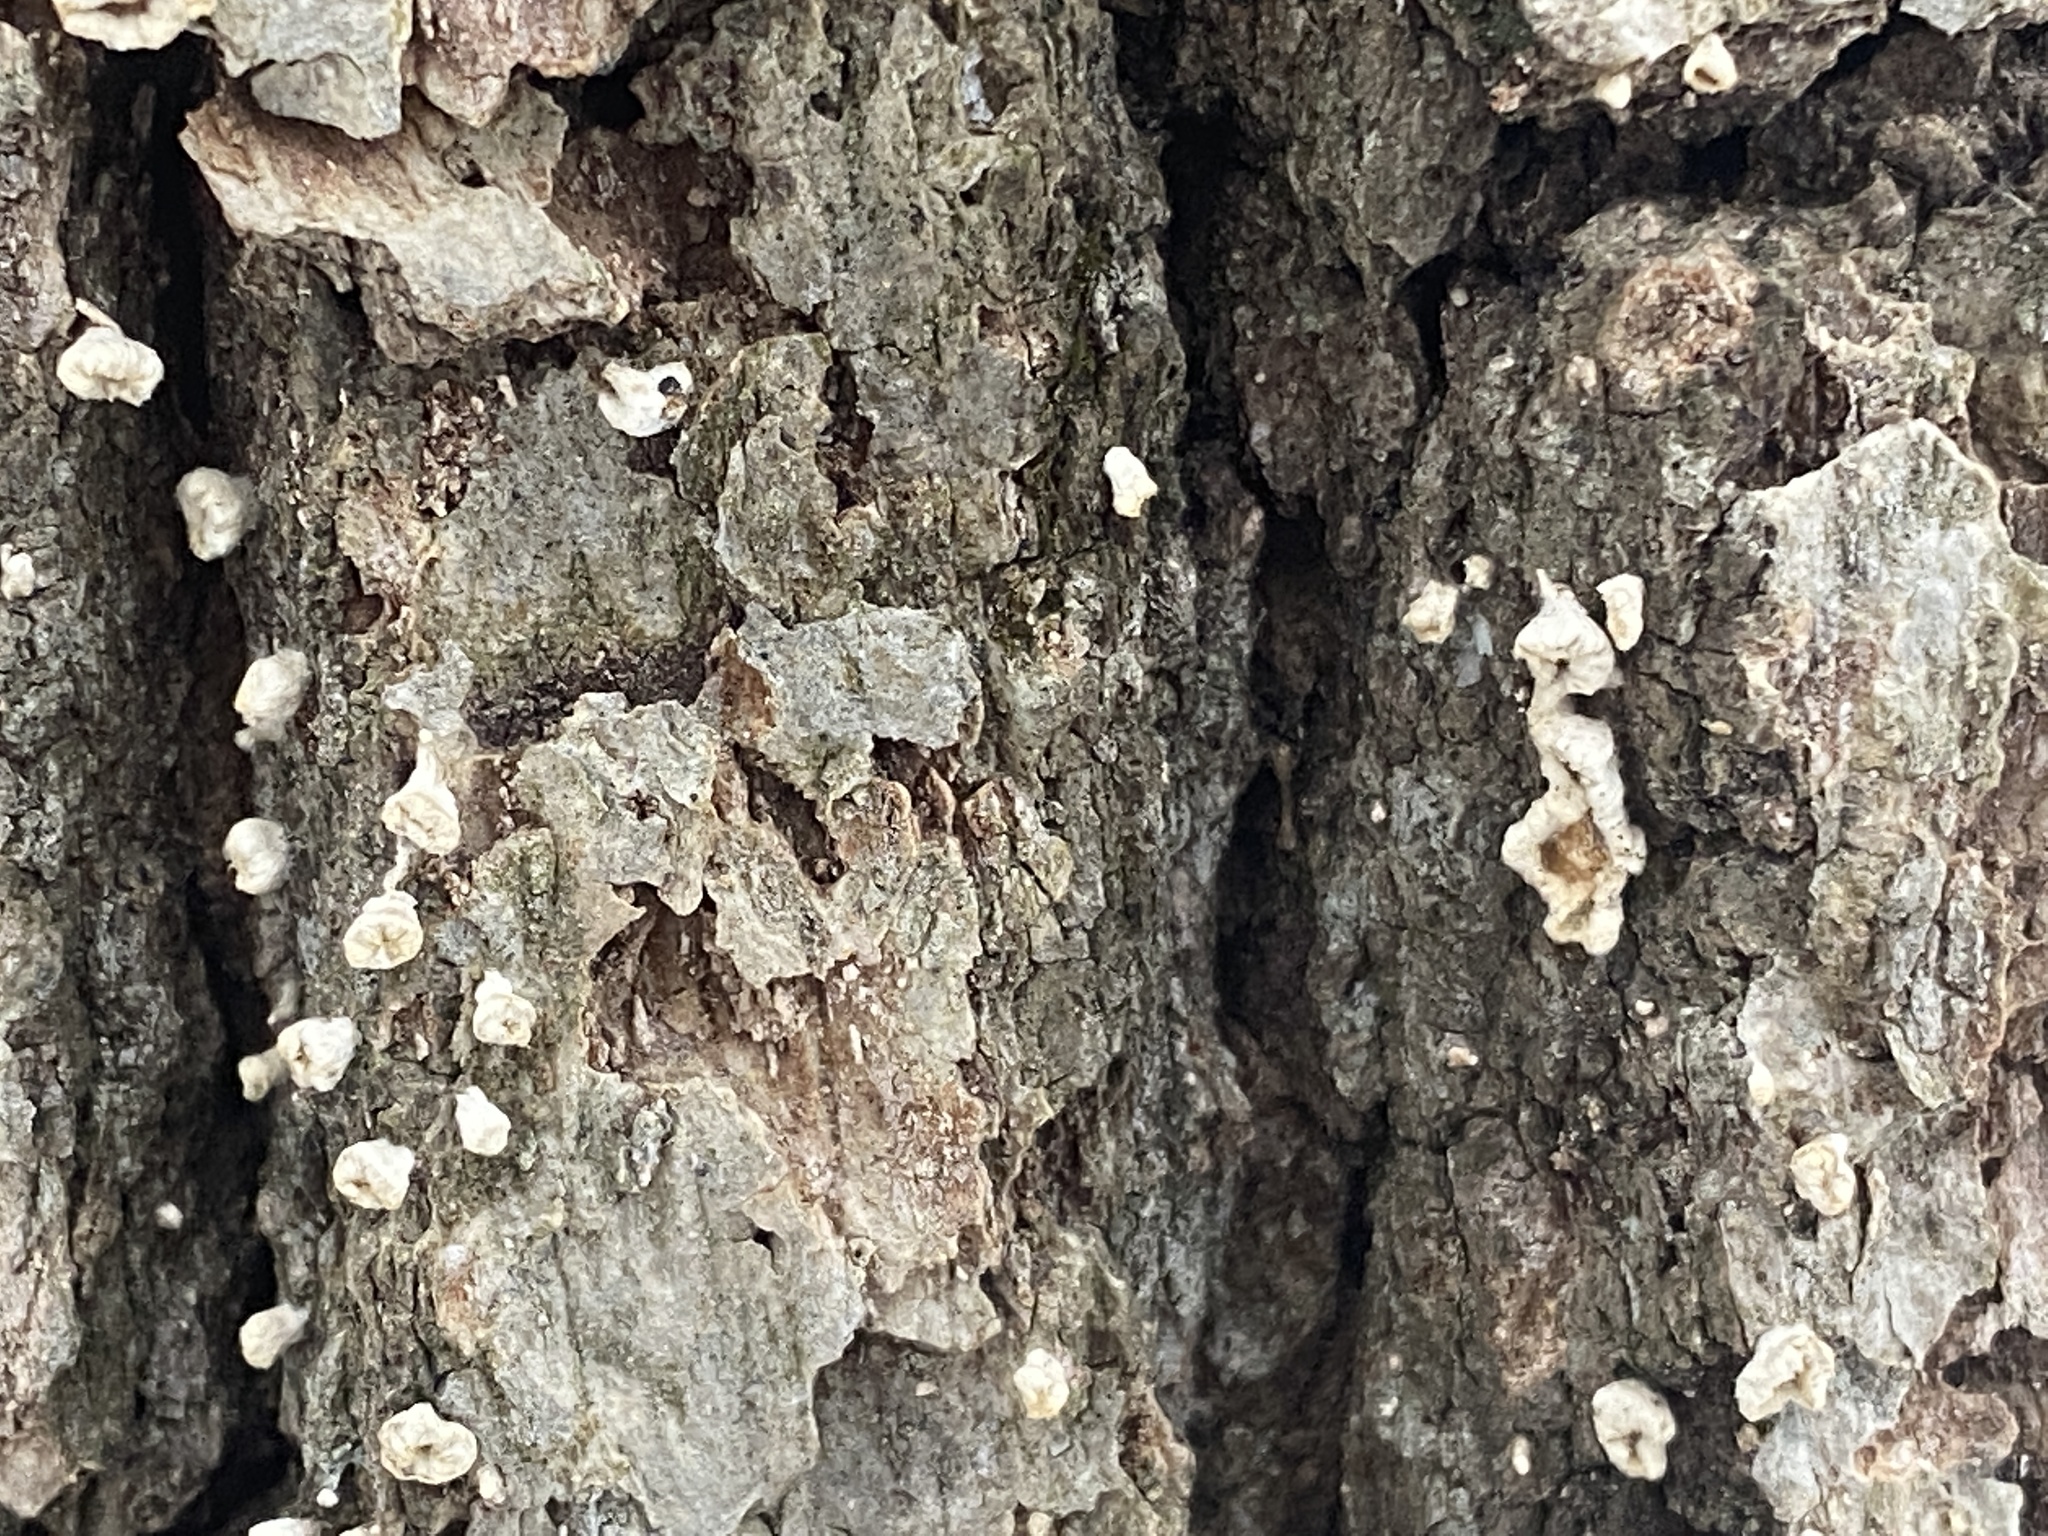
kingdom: Fungi
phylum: Basidiomycota
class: Agaricomycetes
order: Russulales
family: Stereaceae
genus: Acanthophysium
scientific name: Acanthophysium oakesii
